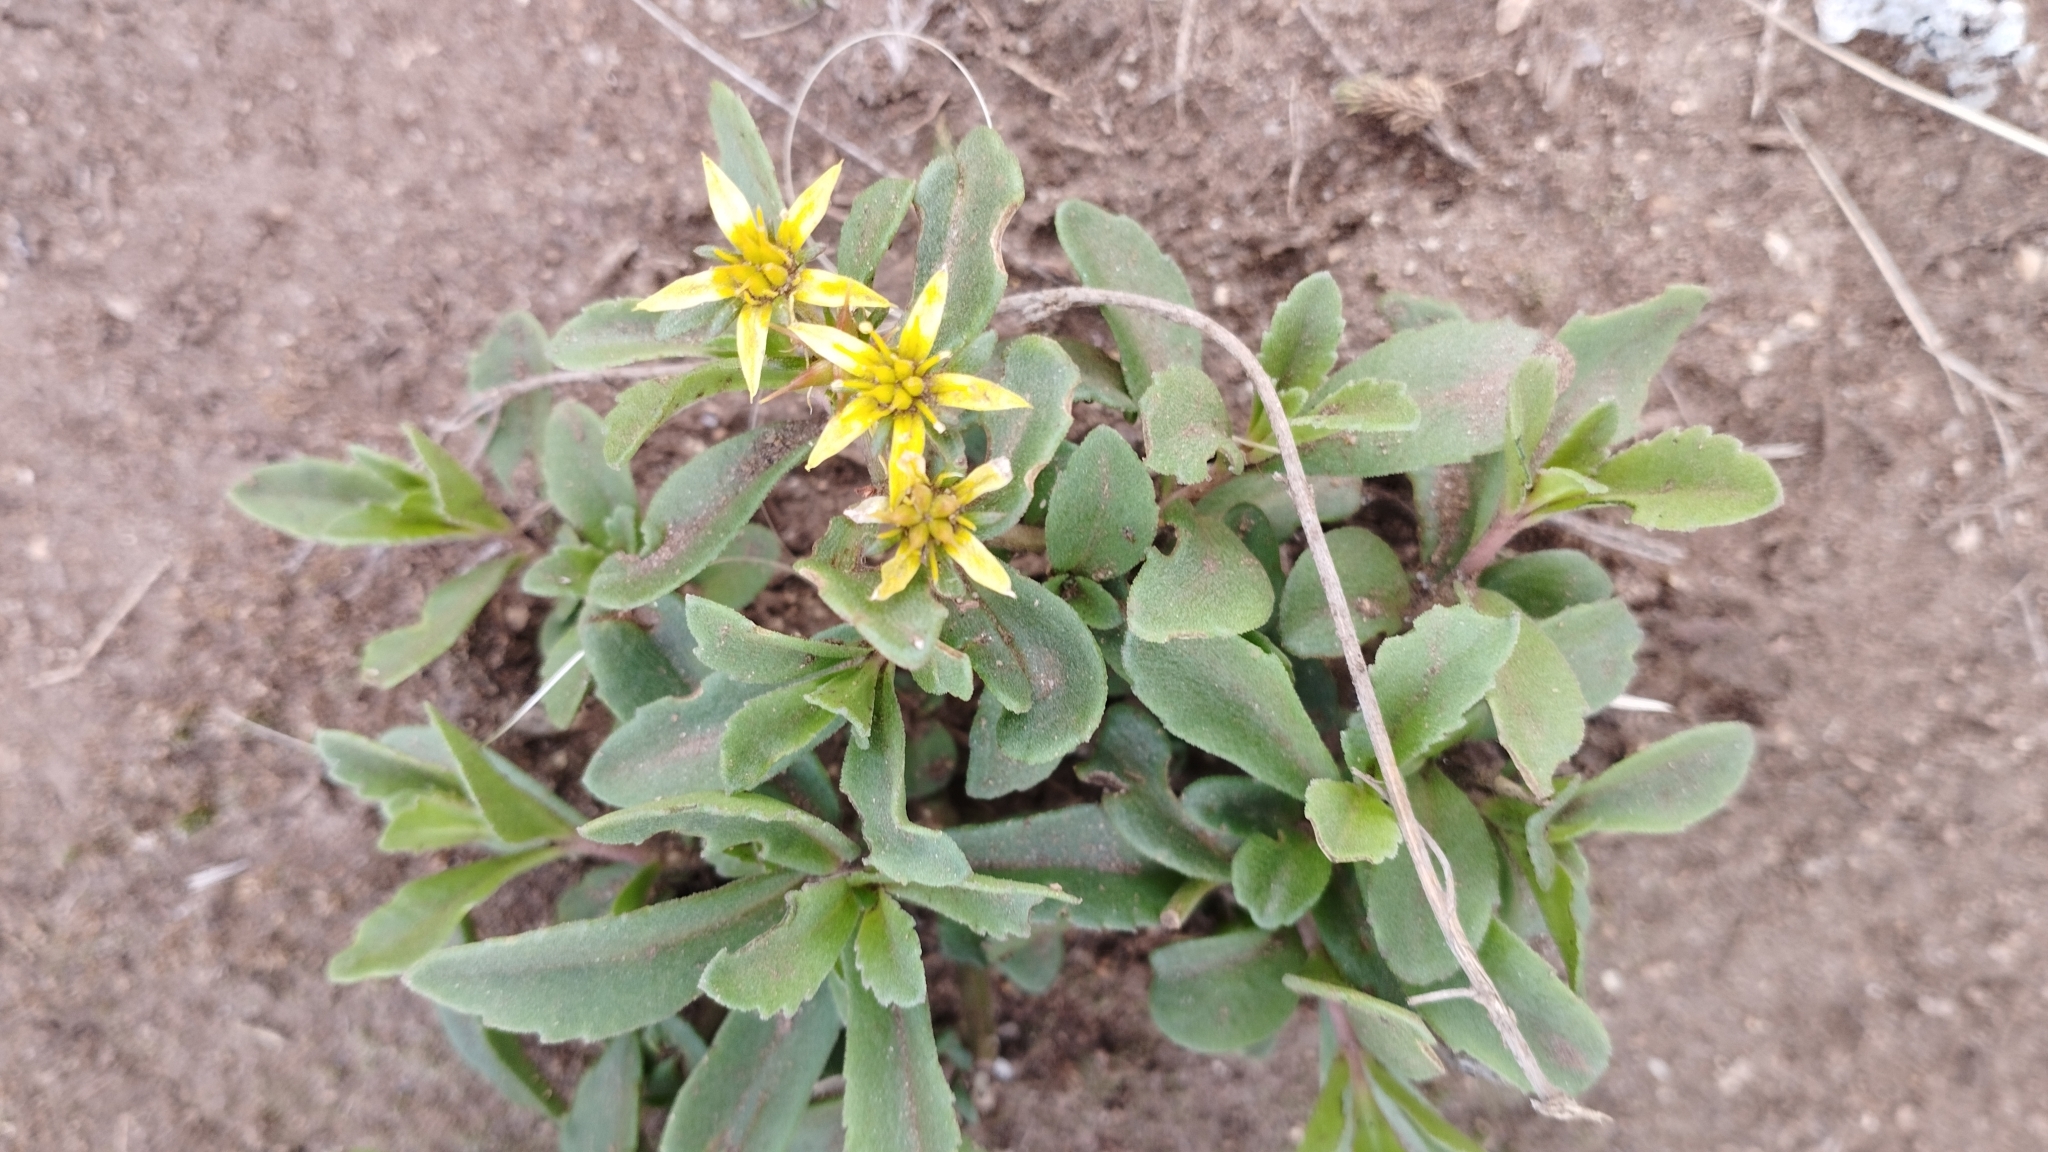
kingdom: Plantae
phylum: Tracheophyta
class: Magnoliopsida
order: Saxifragales
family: Crassulaceae
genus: Phedimus
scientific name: Phedimus aizoon
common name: Orpin aizoon
